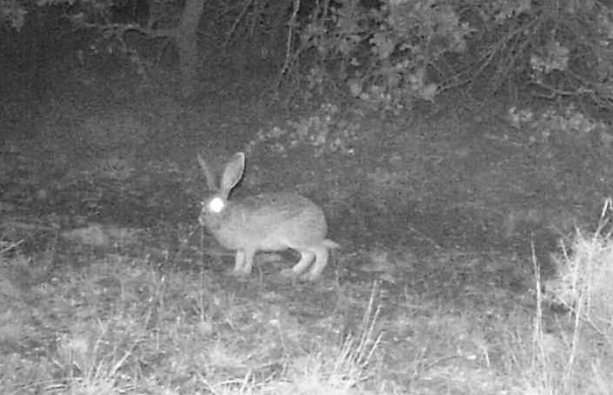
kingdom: Animalia
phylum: Chordata
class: Mammalia
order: Lagomorpha
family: Leporidae
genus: Lepus
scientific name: Lepus capensis
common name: Cape hare
